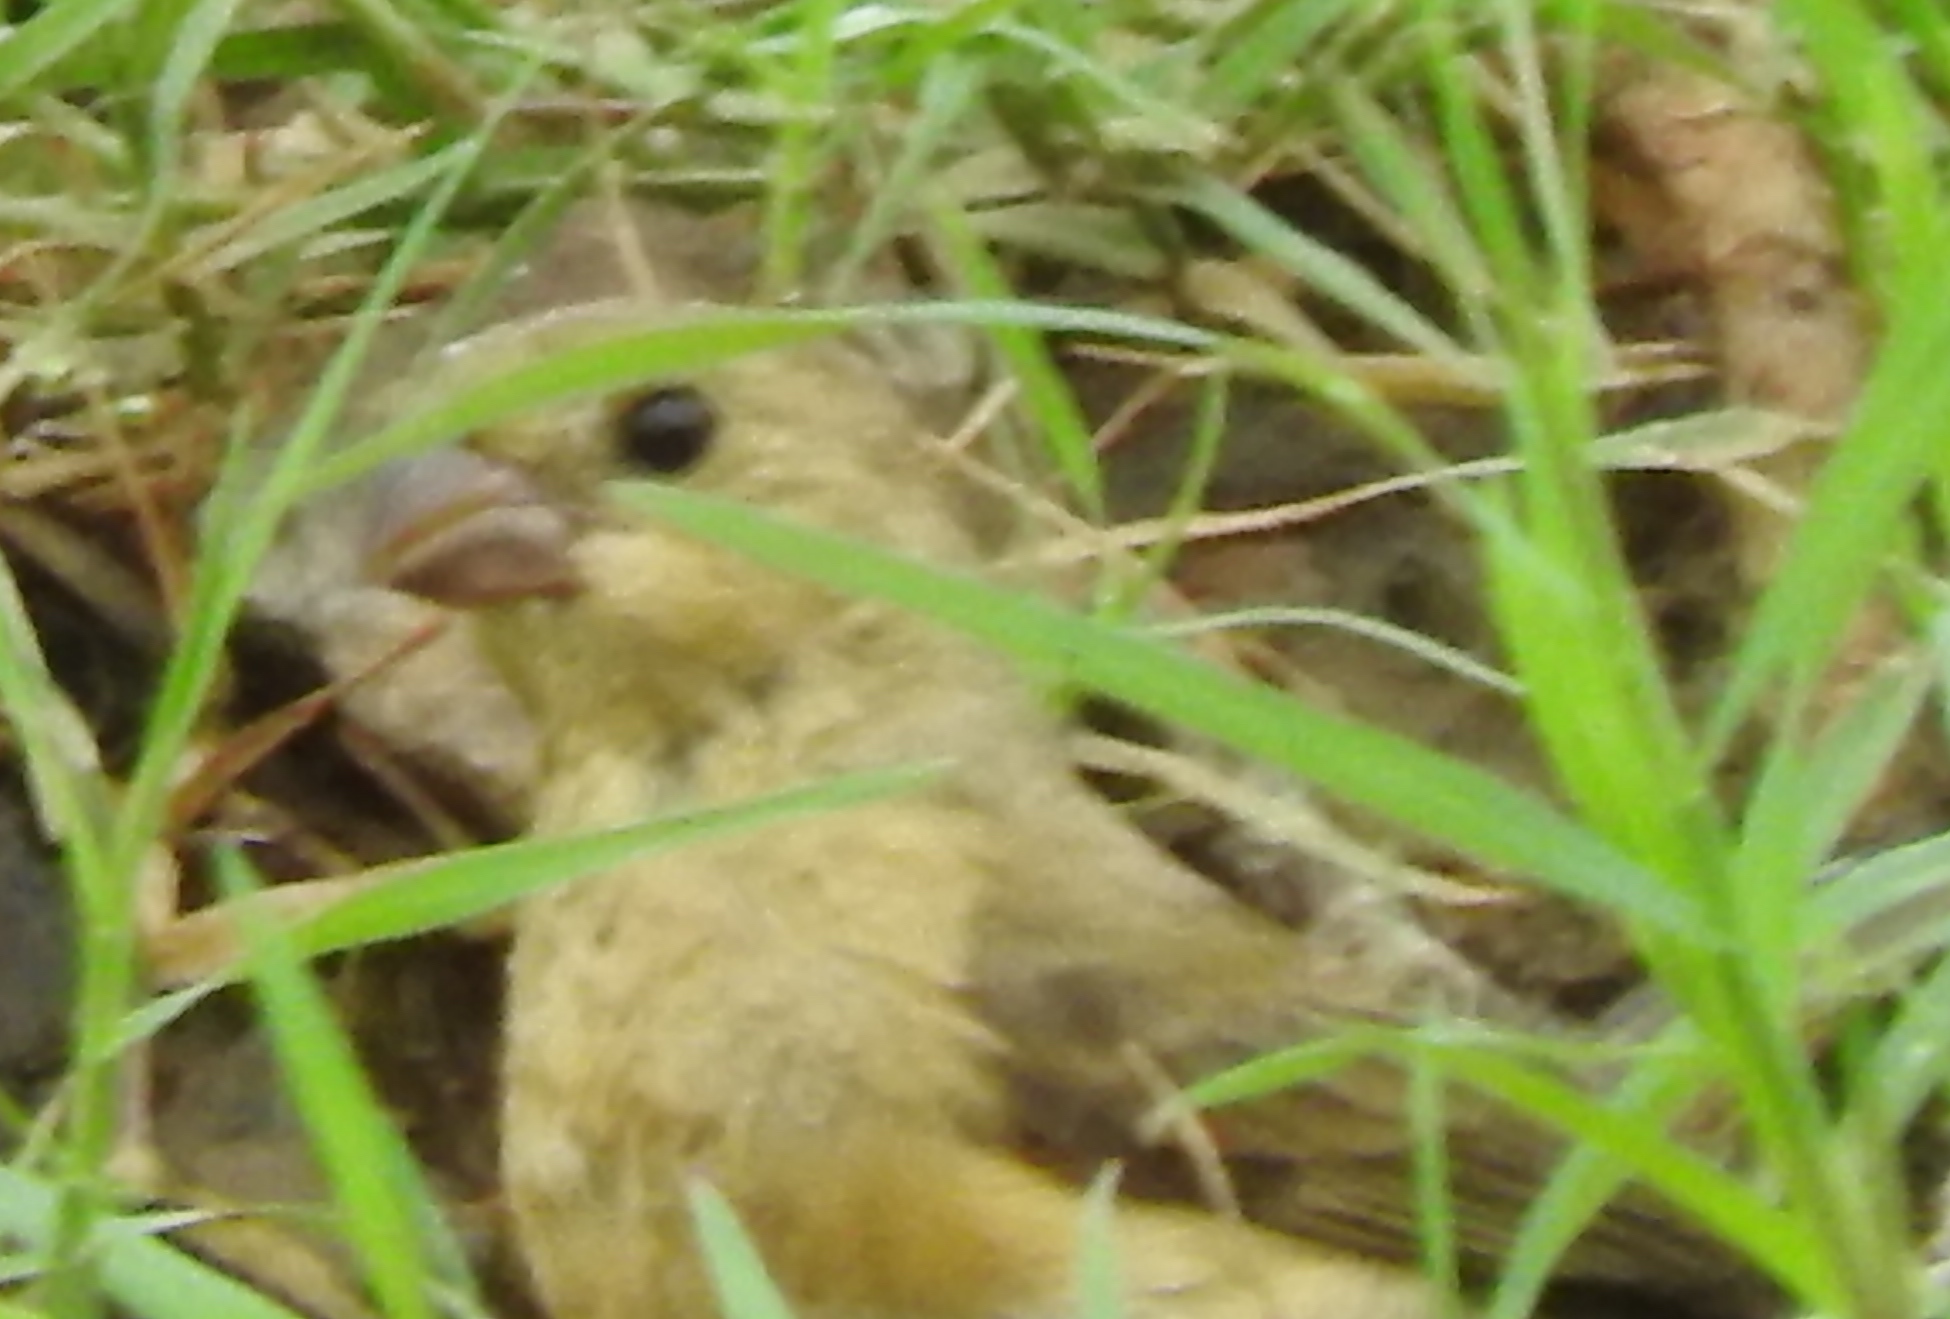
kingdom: Animalia
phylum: Chordata
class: Aves
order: Passeriformes
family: Thraupidae
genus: Sporophila
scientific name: Sporophila torqueola
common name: White-collared seedeater
